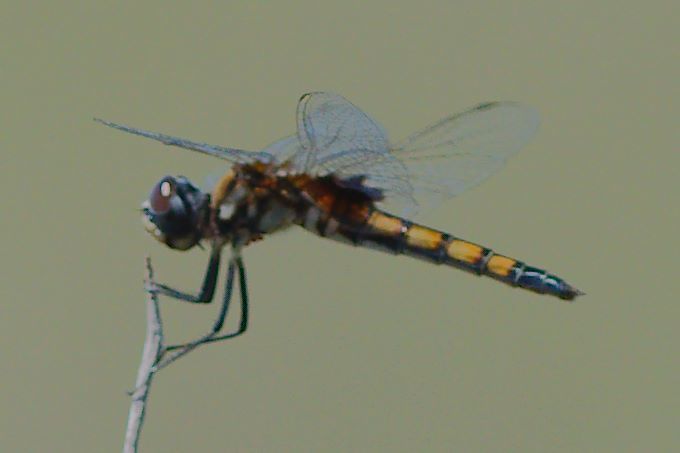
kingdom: Animalia
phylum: Arthropoda
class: Insecta
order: Odonata
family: Libellulidae
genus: Macrodiplax
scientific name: Macrodiplax balteata
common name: Marl pennant
